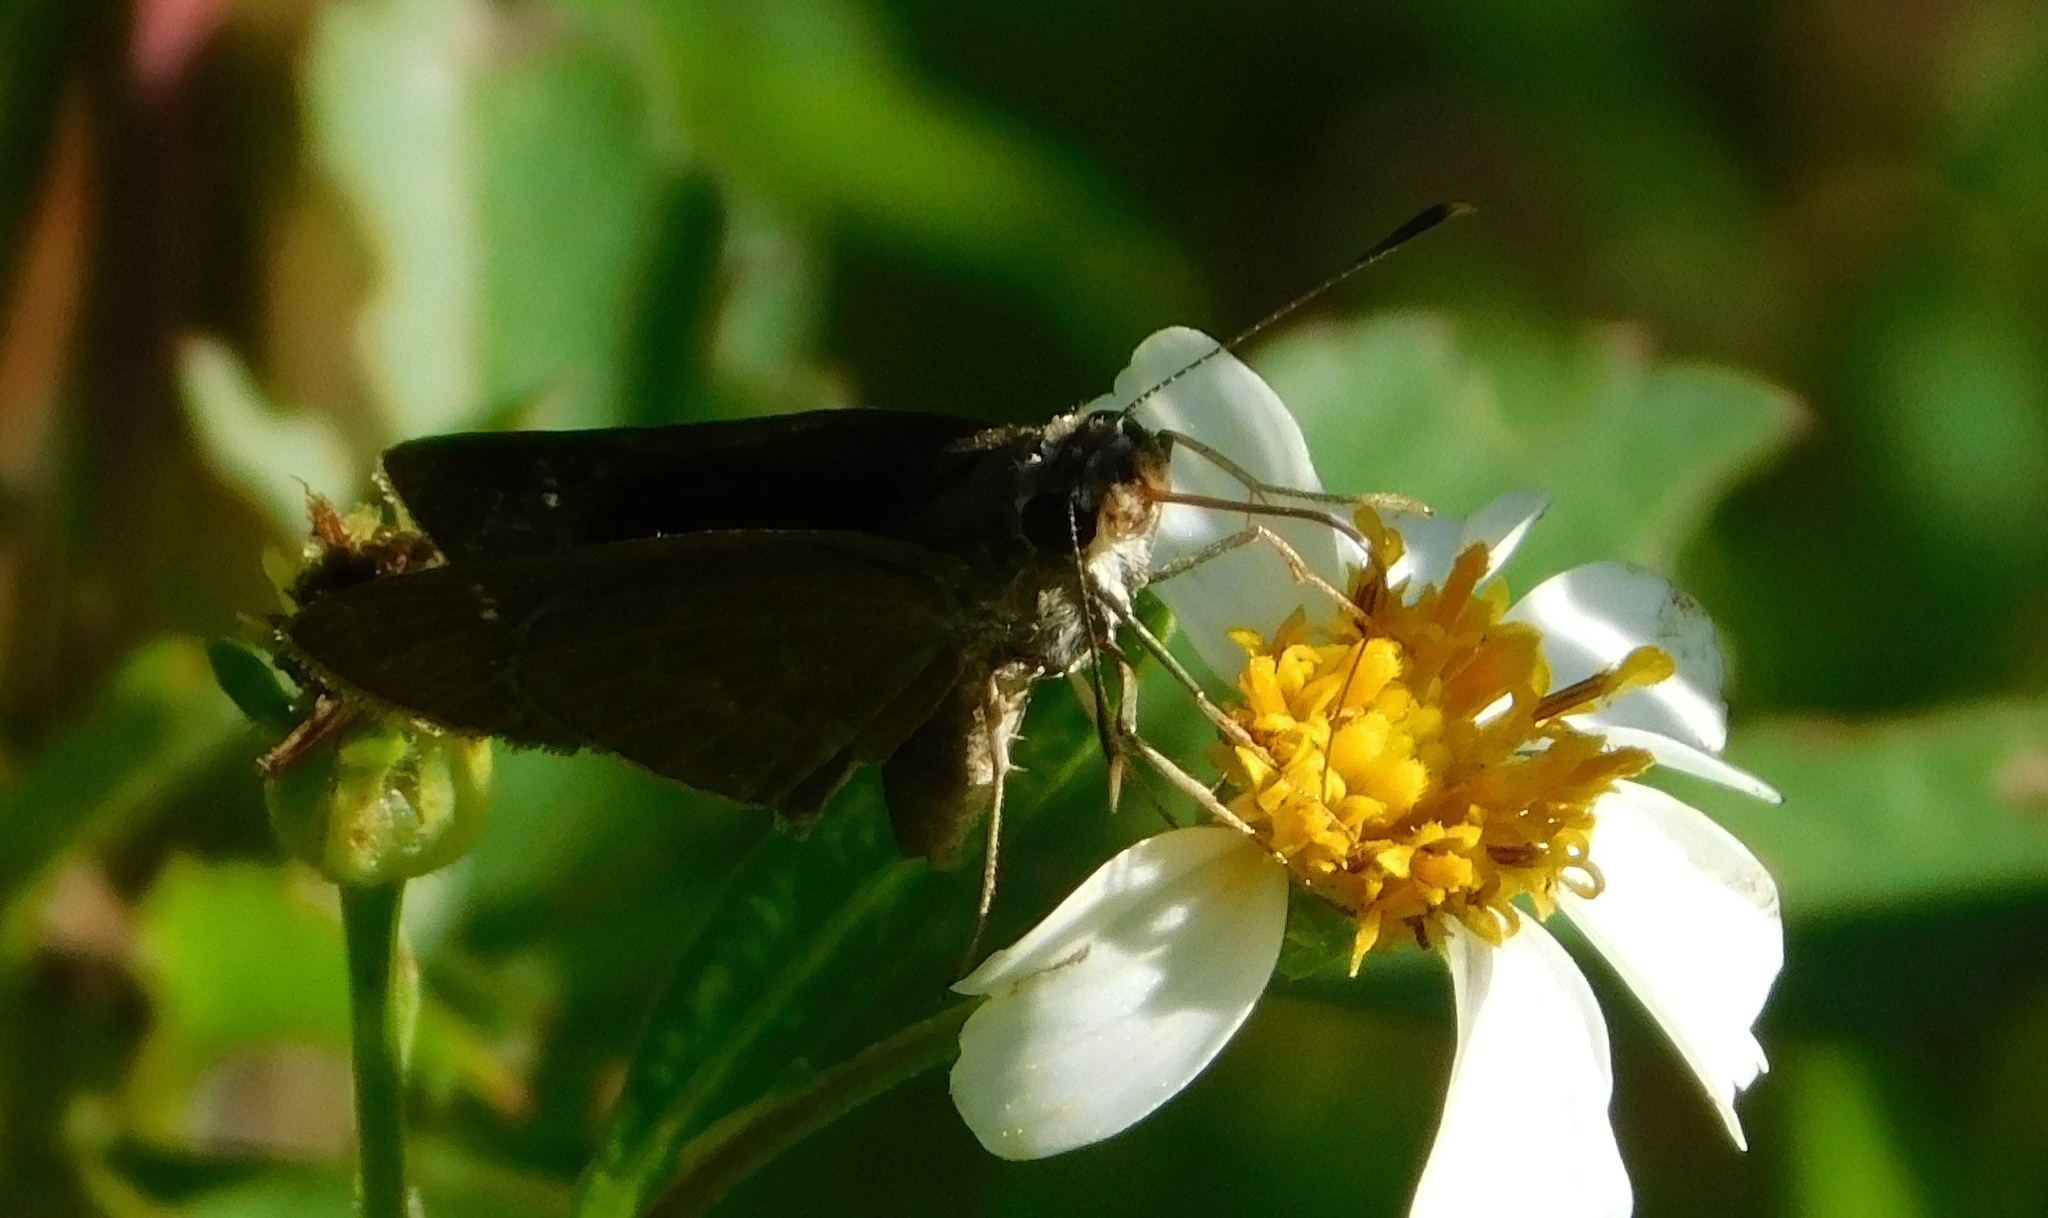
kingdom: Animalia
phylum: Arthropoda
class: Insecta
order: Lepidoptera
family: Hesperiidae
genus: Cymaenes
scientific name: Cymaenes tripunctus
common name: Dingy dotted skipper
